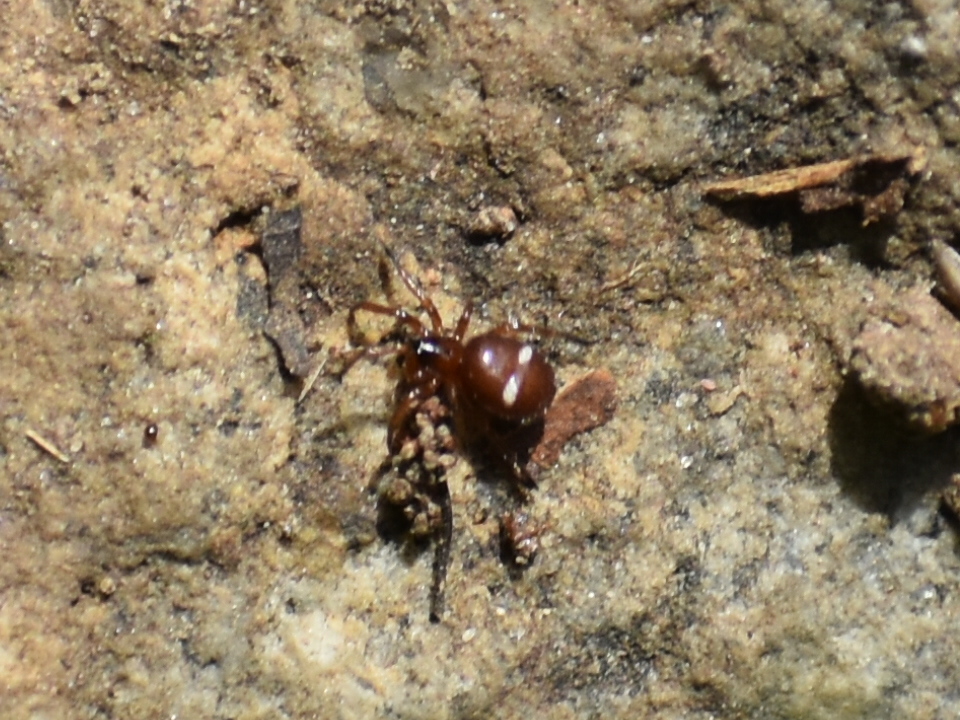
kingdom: Animalia
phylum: Arthropoda
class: Arachnida
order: Araneae
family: Theridiidae
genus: Asagena
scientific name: Asagena americana
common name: Two-spotted cobweb spider
